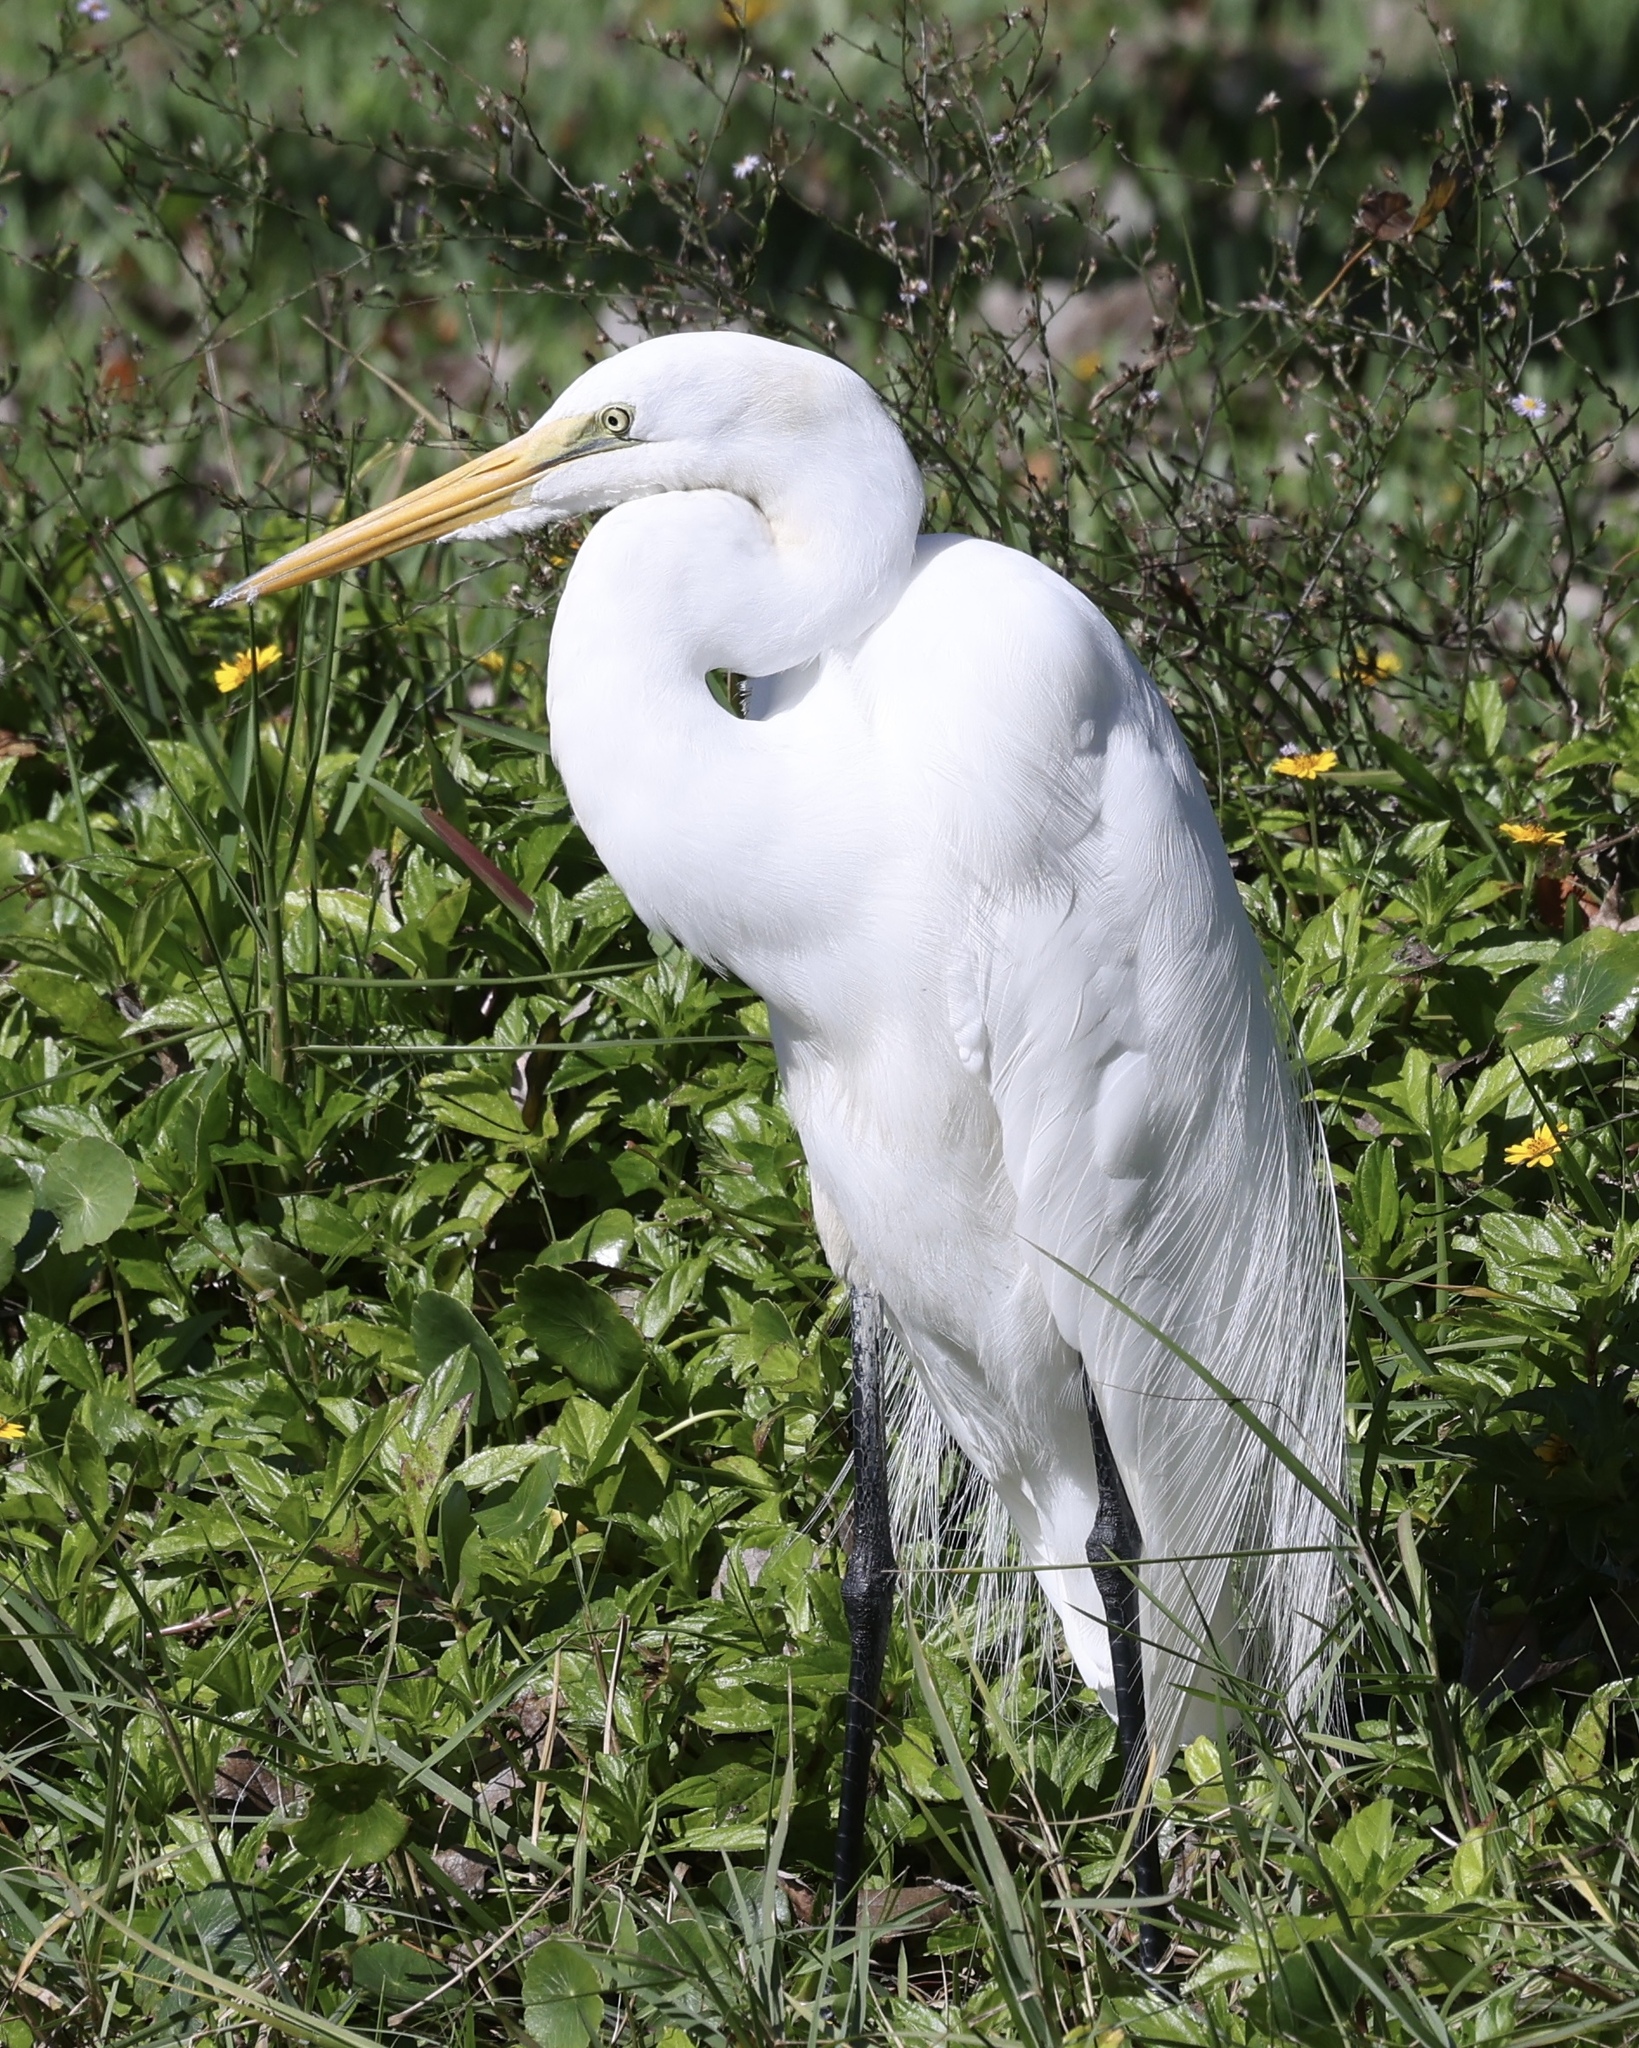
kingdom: Animalia
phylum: Chordata
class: Aves
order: Pelecaniformes
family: Ardeidae
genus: Ardea
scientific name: Ardea alba
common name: Great egret
